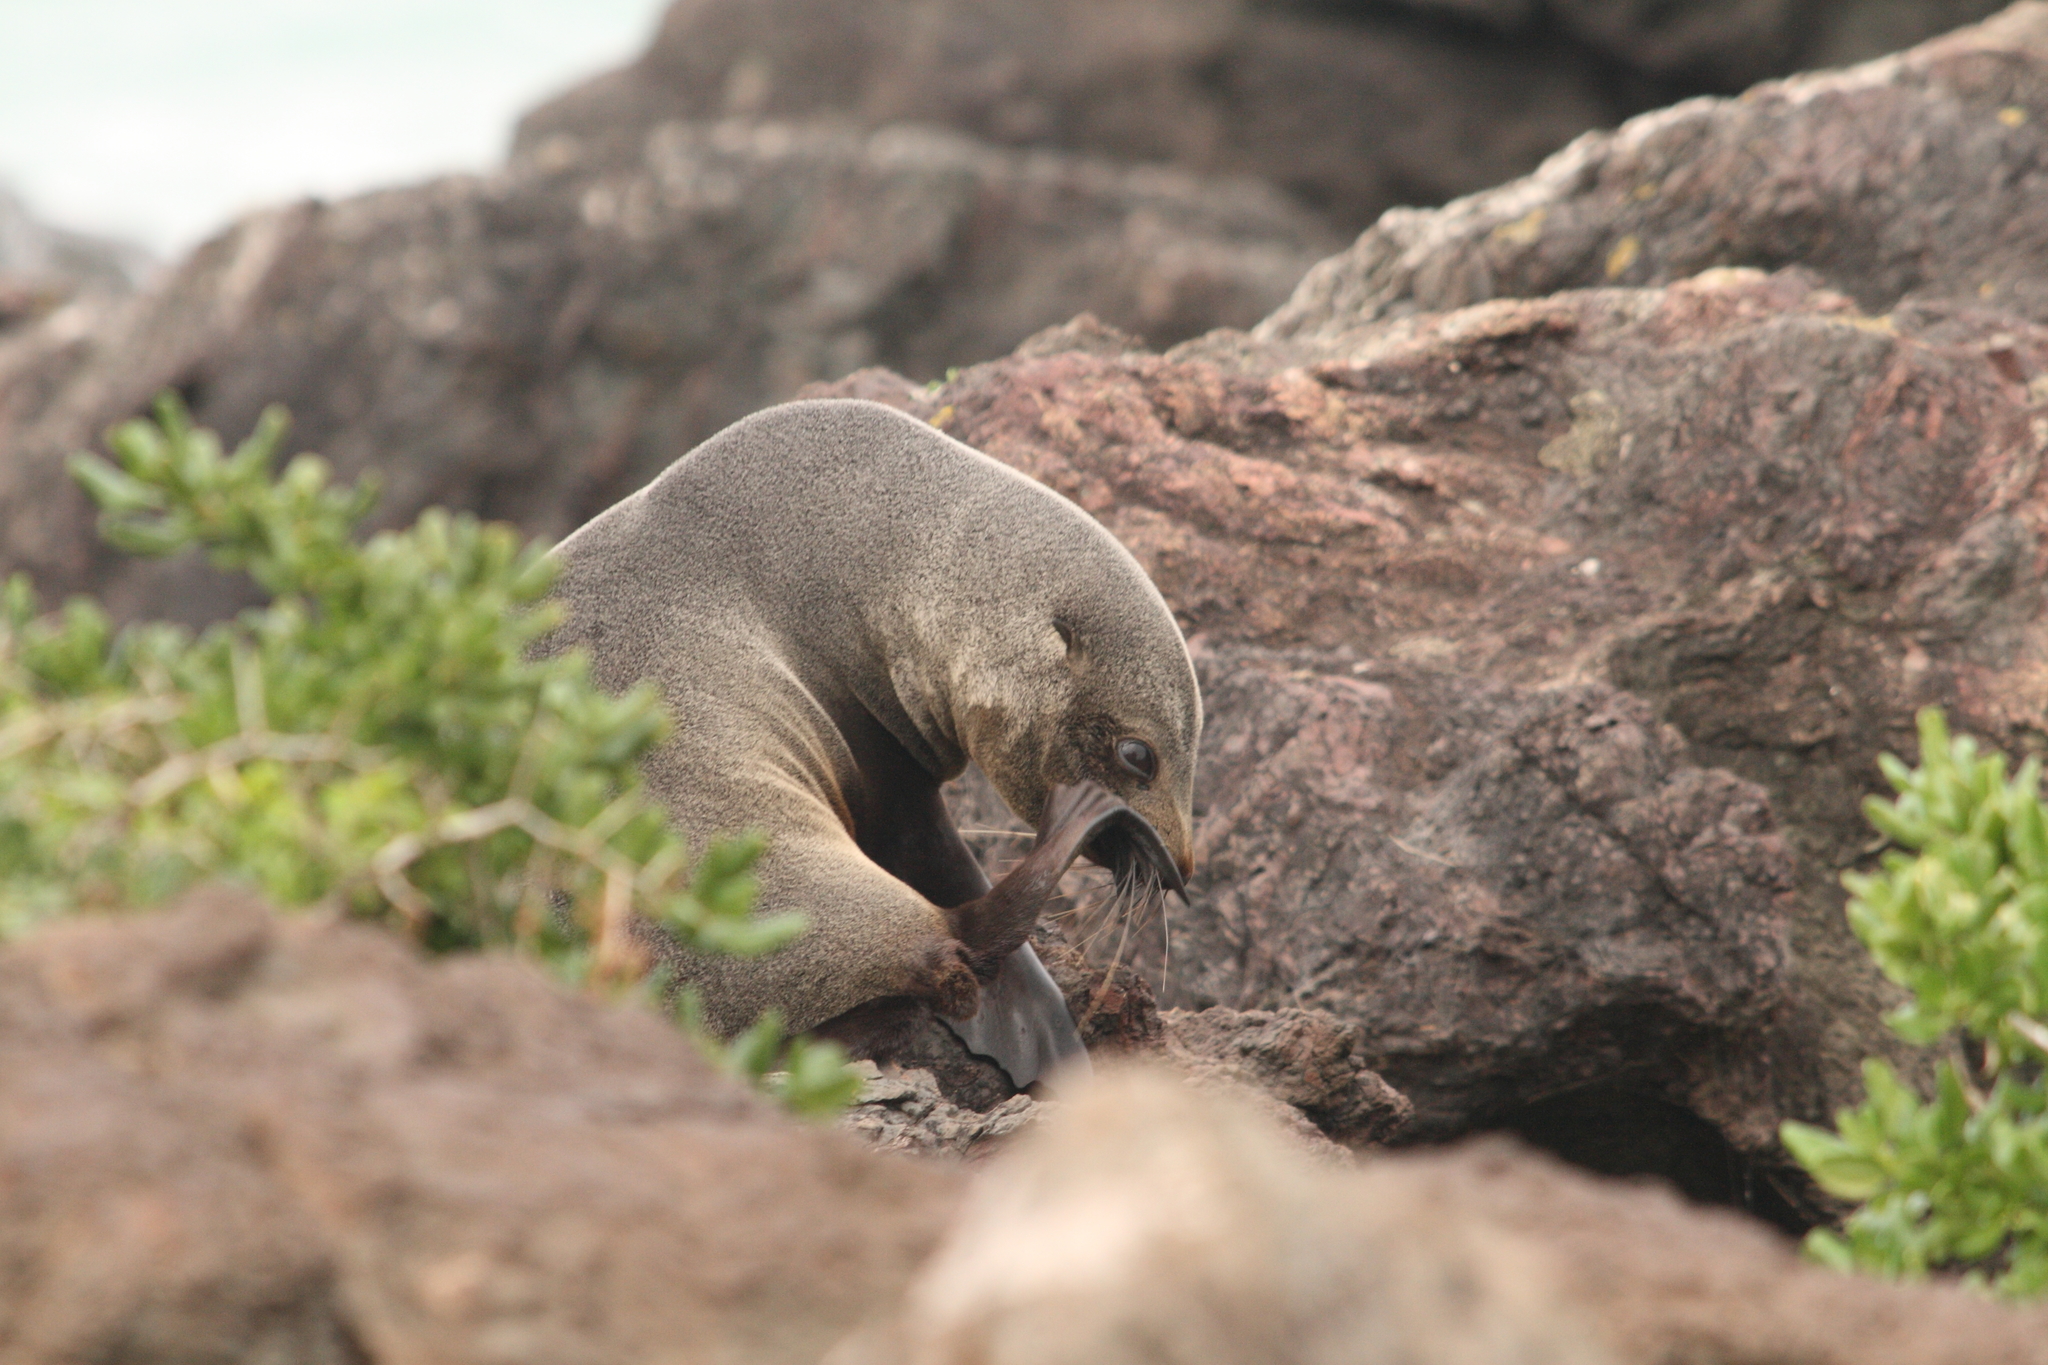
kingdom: Animalia
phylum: Chordata
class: Mammalia
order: Carnivora
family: Otariidae
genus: Arctocephalus
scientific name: Arctocephalus forsteri
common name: New zealand fur seal
